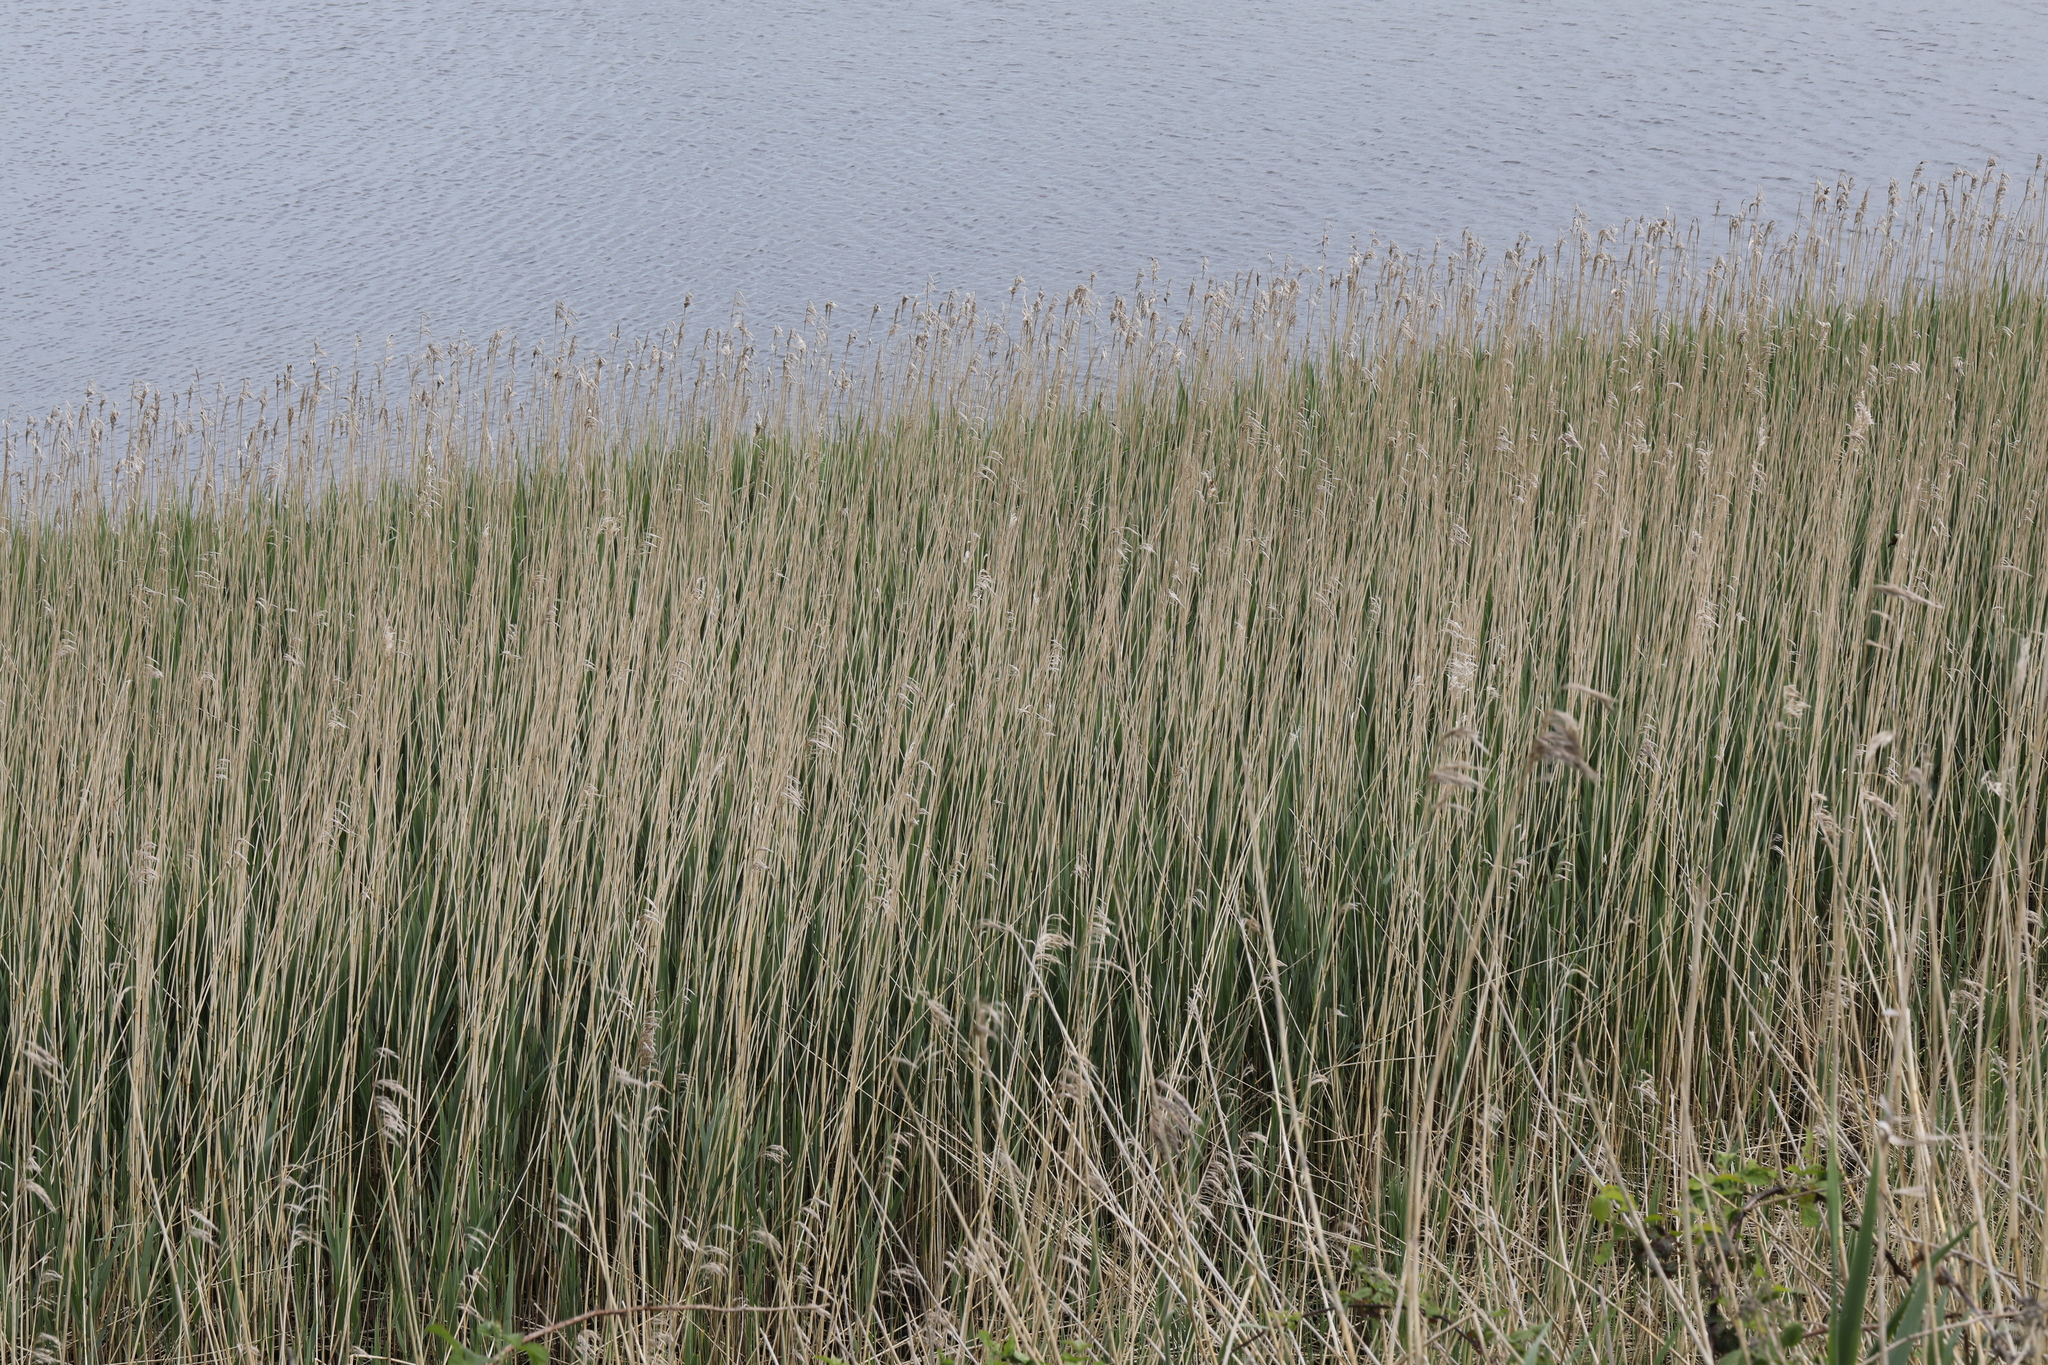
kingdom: Plantae
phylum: Tracheophyta
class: Liliopsida
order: Poales
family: Poaceae
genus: Phragmites
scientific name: Phragmites australis
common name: Common reed
